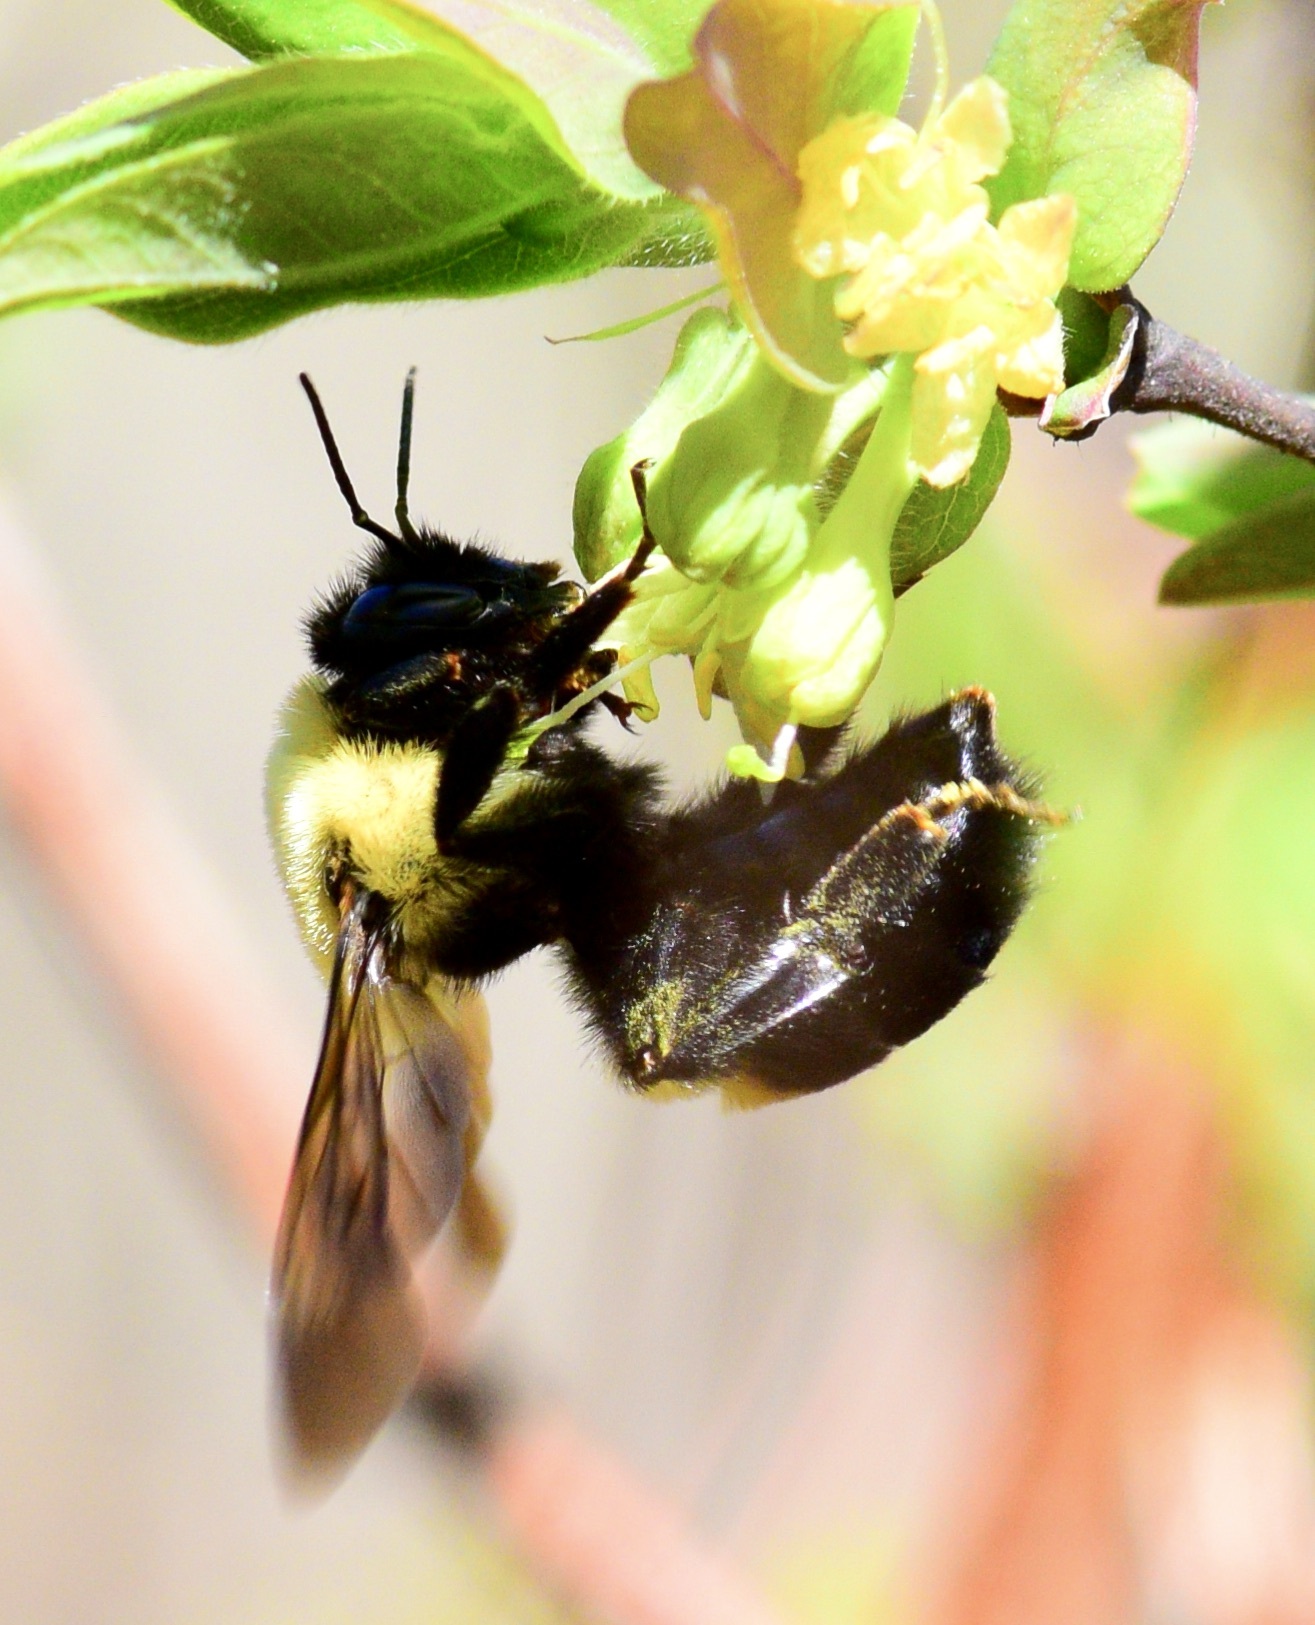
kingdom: Animalia
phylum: Arthropoda
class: Insecta
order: Hymenoptera
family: Apidae
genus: Bombus
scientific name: Bombus griseocollis
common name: Brown-belted bumble bee
